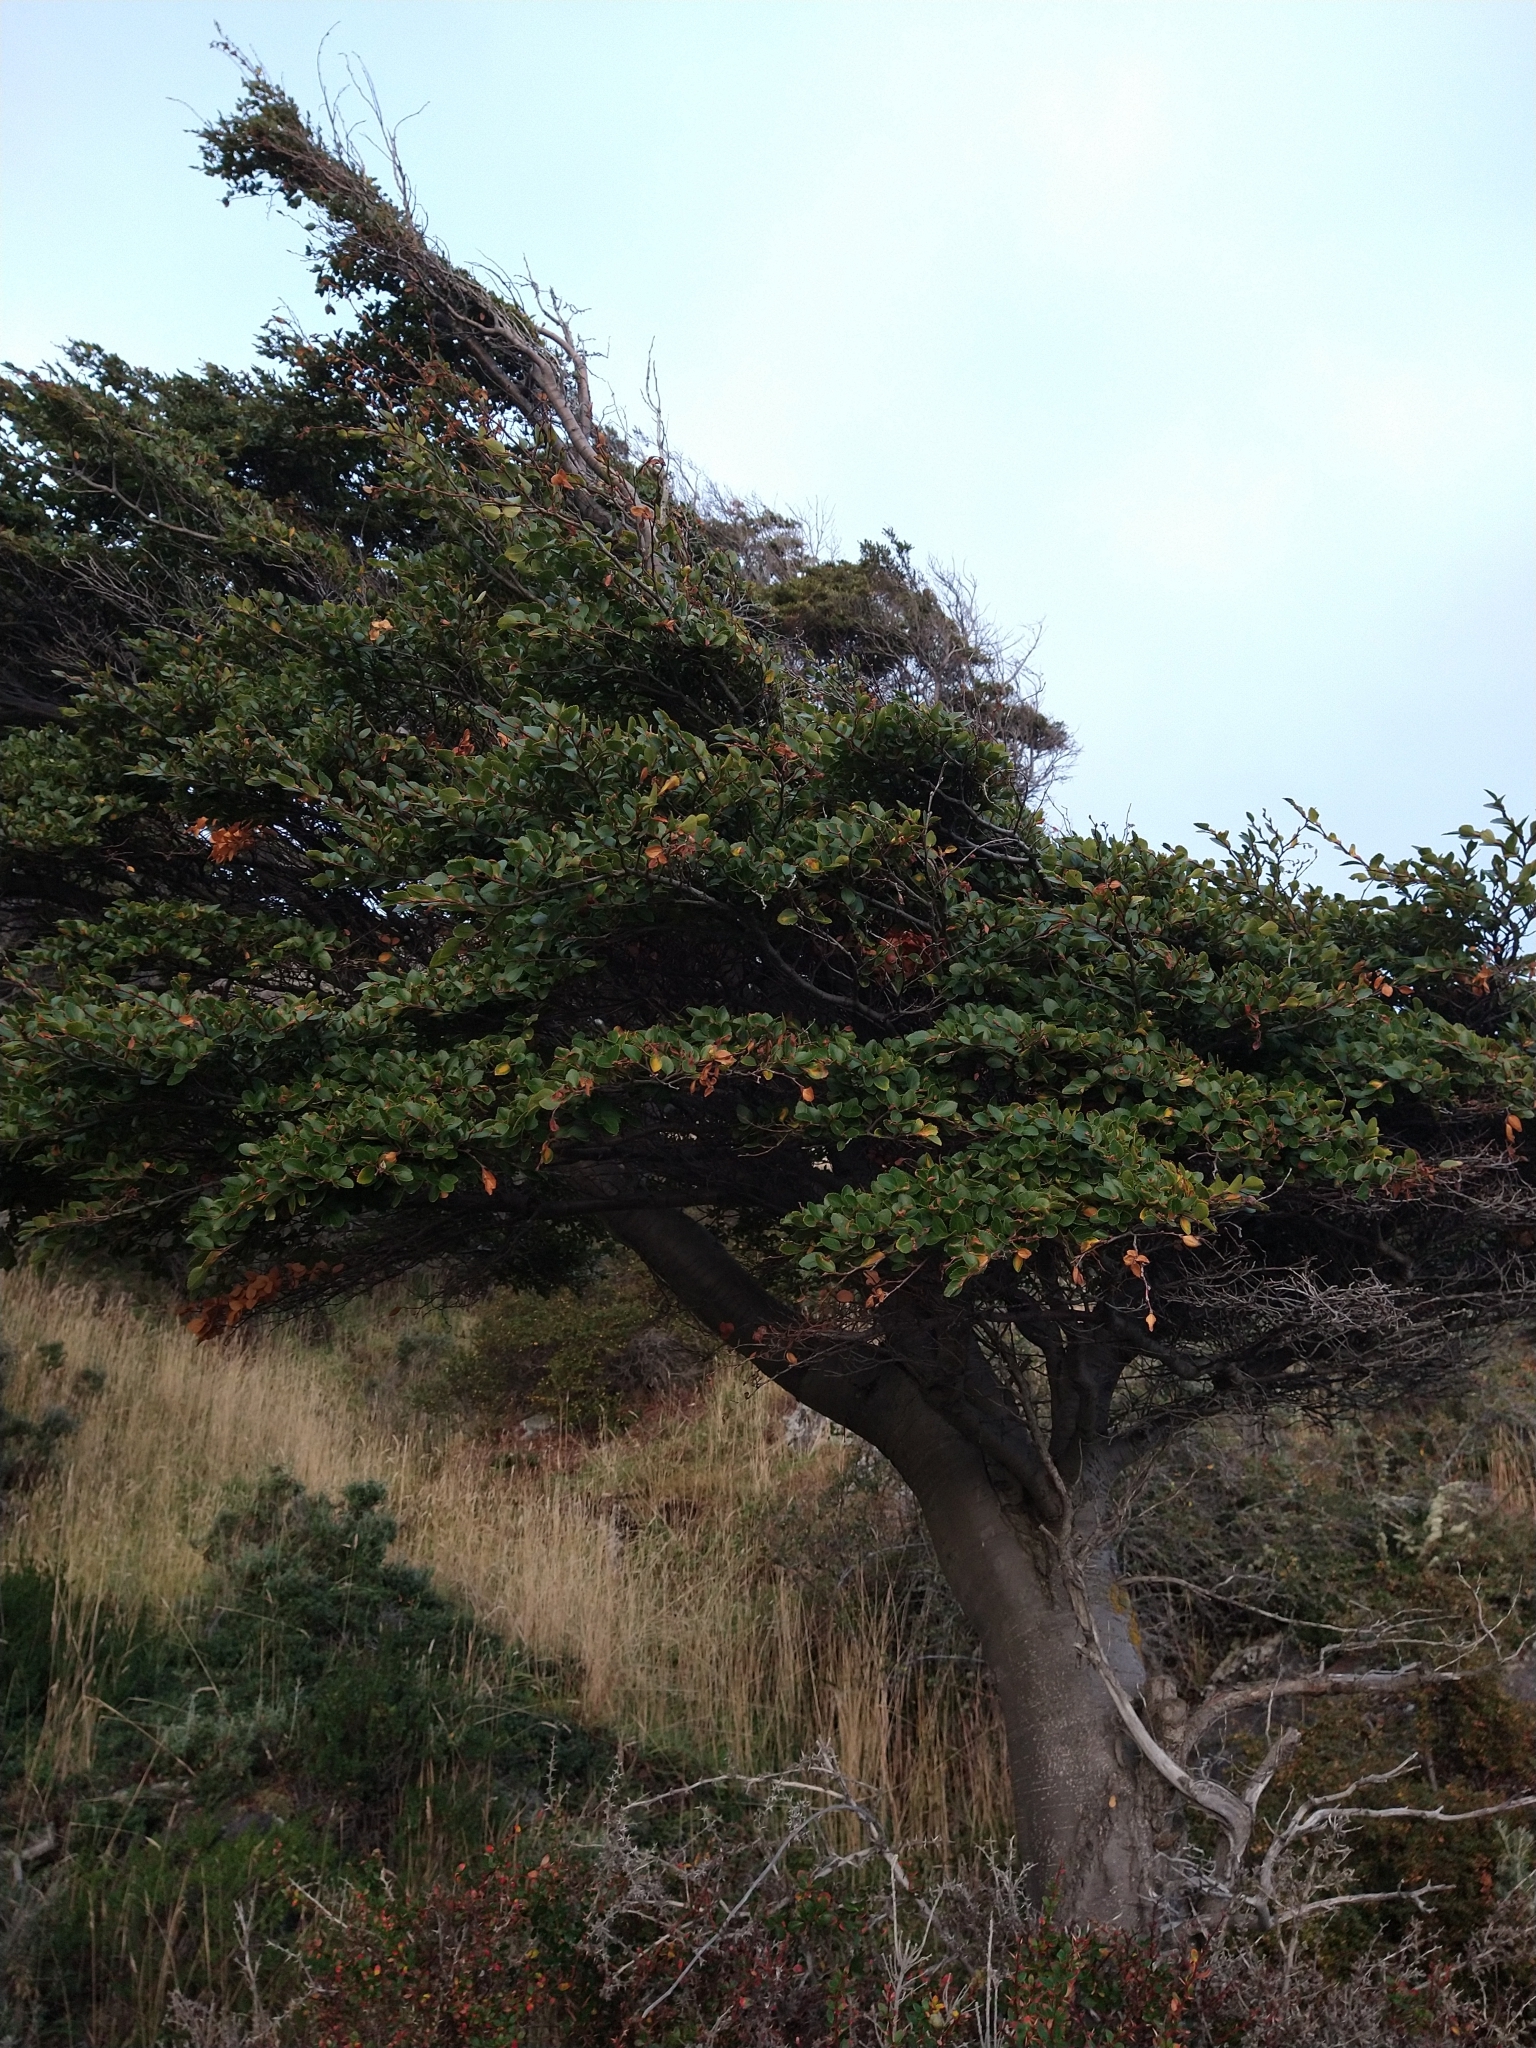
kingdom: Plantae
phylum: Tracheophyta
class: Magnoliopsida
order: Fagales
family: Nothofagaceae
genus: Nothofagus
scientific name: Nothofagus betuloides
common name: Magellan's beech
